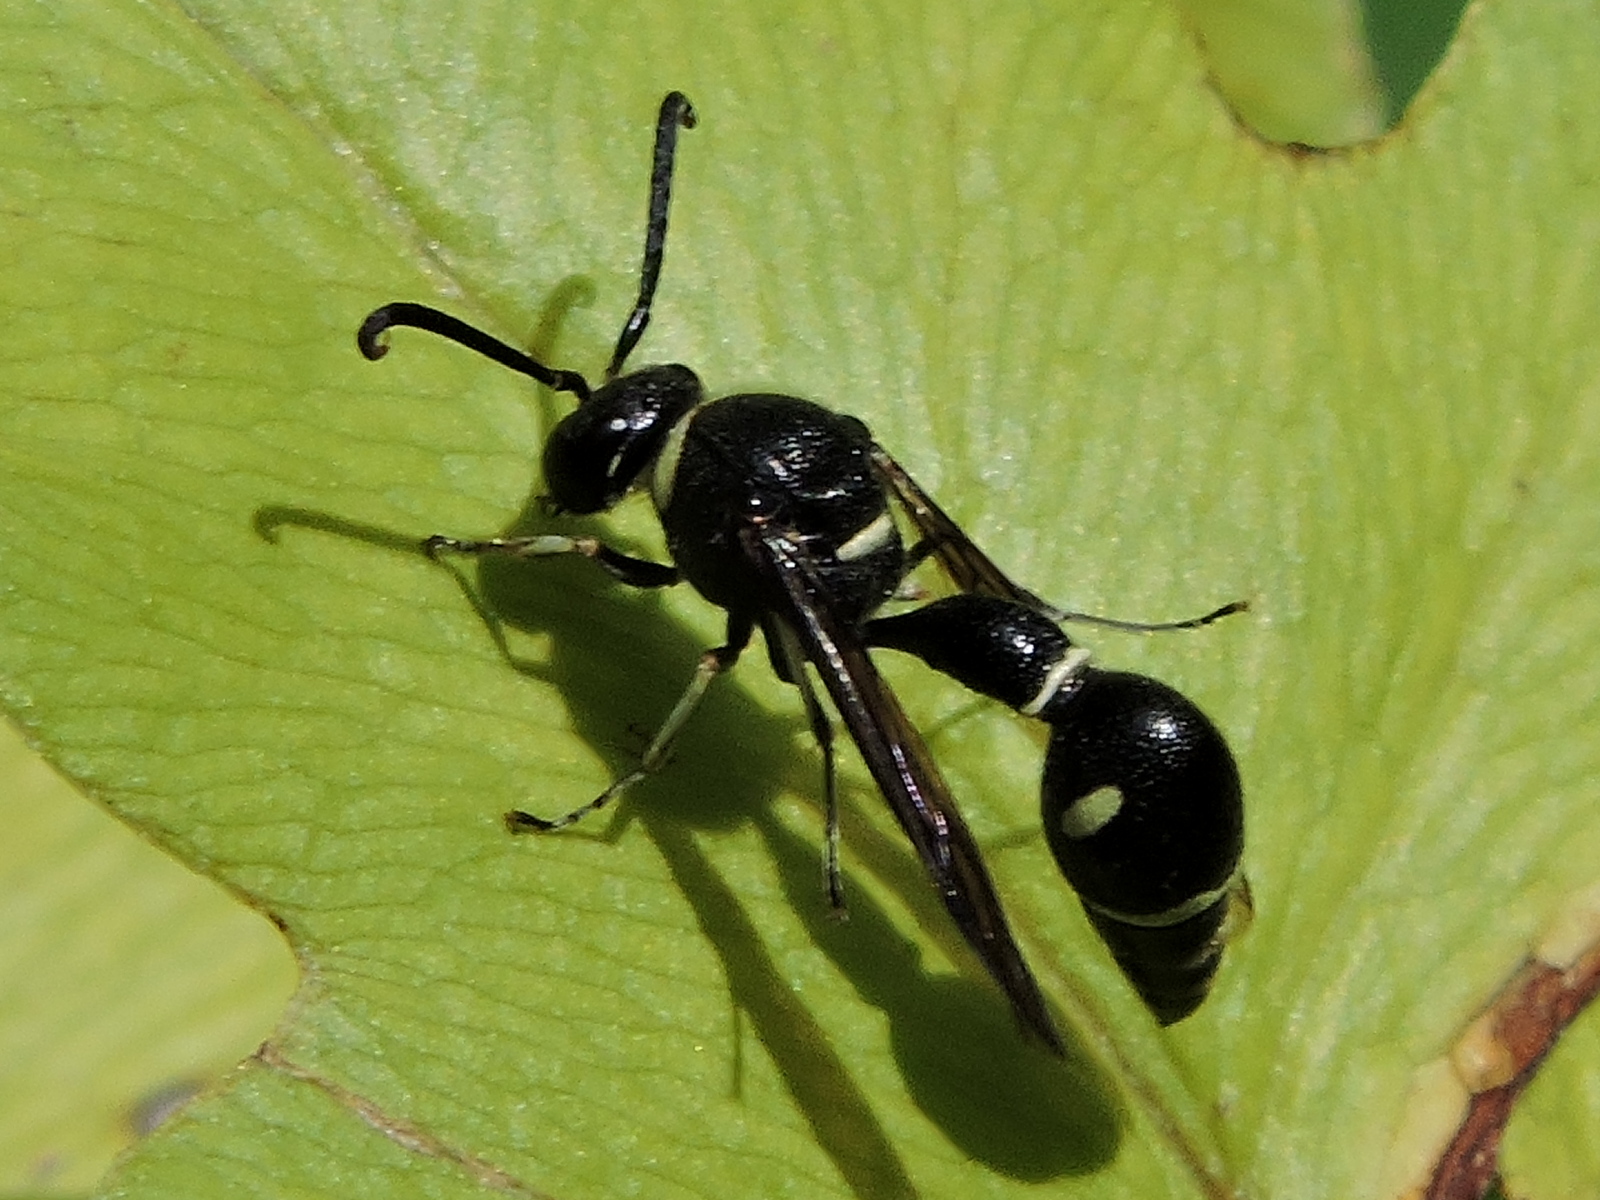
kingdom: Animalia
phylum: Arthropoda
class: Insecta
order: Hymenoptera
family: Vespidae
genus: Eumenes
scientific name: Eumenes fraternus
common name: Fraternal potter wasp
